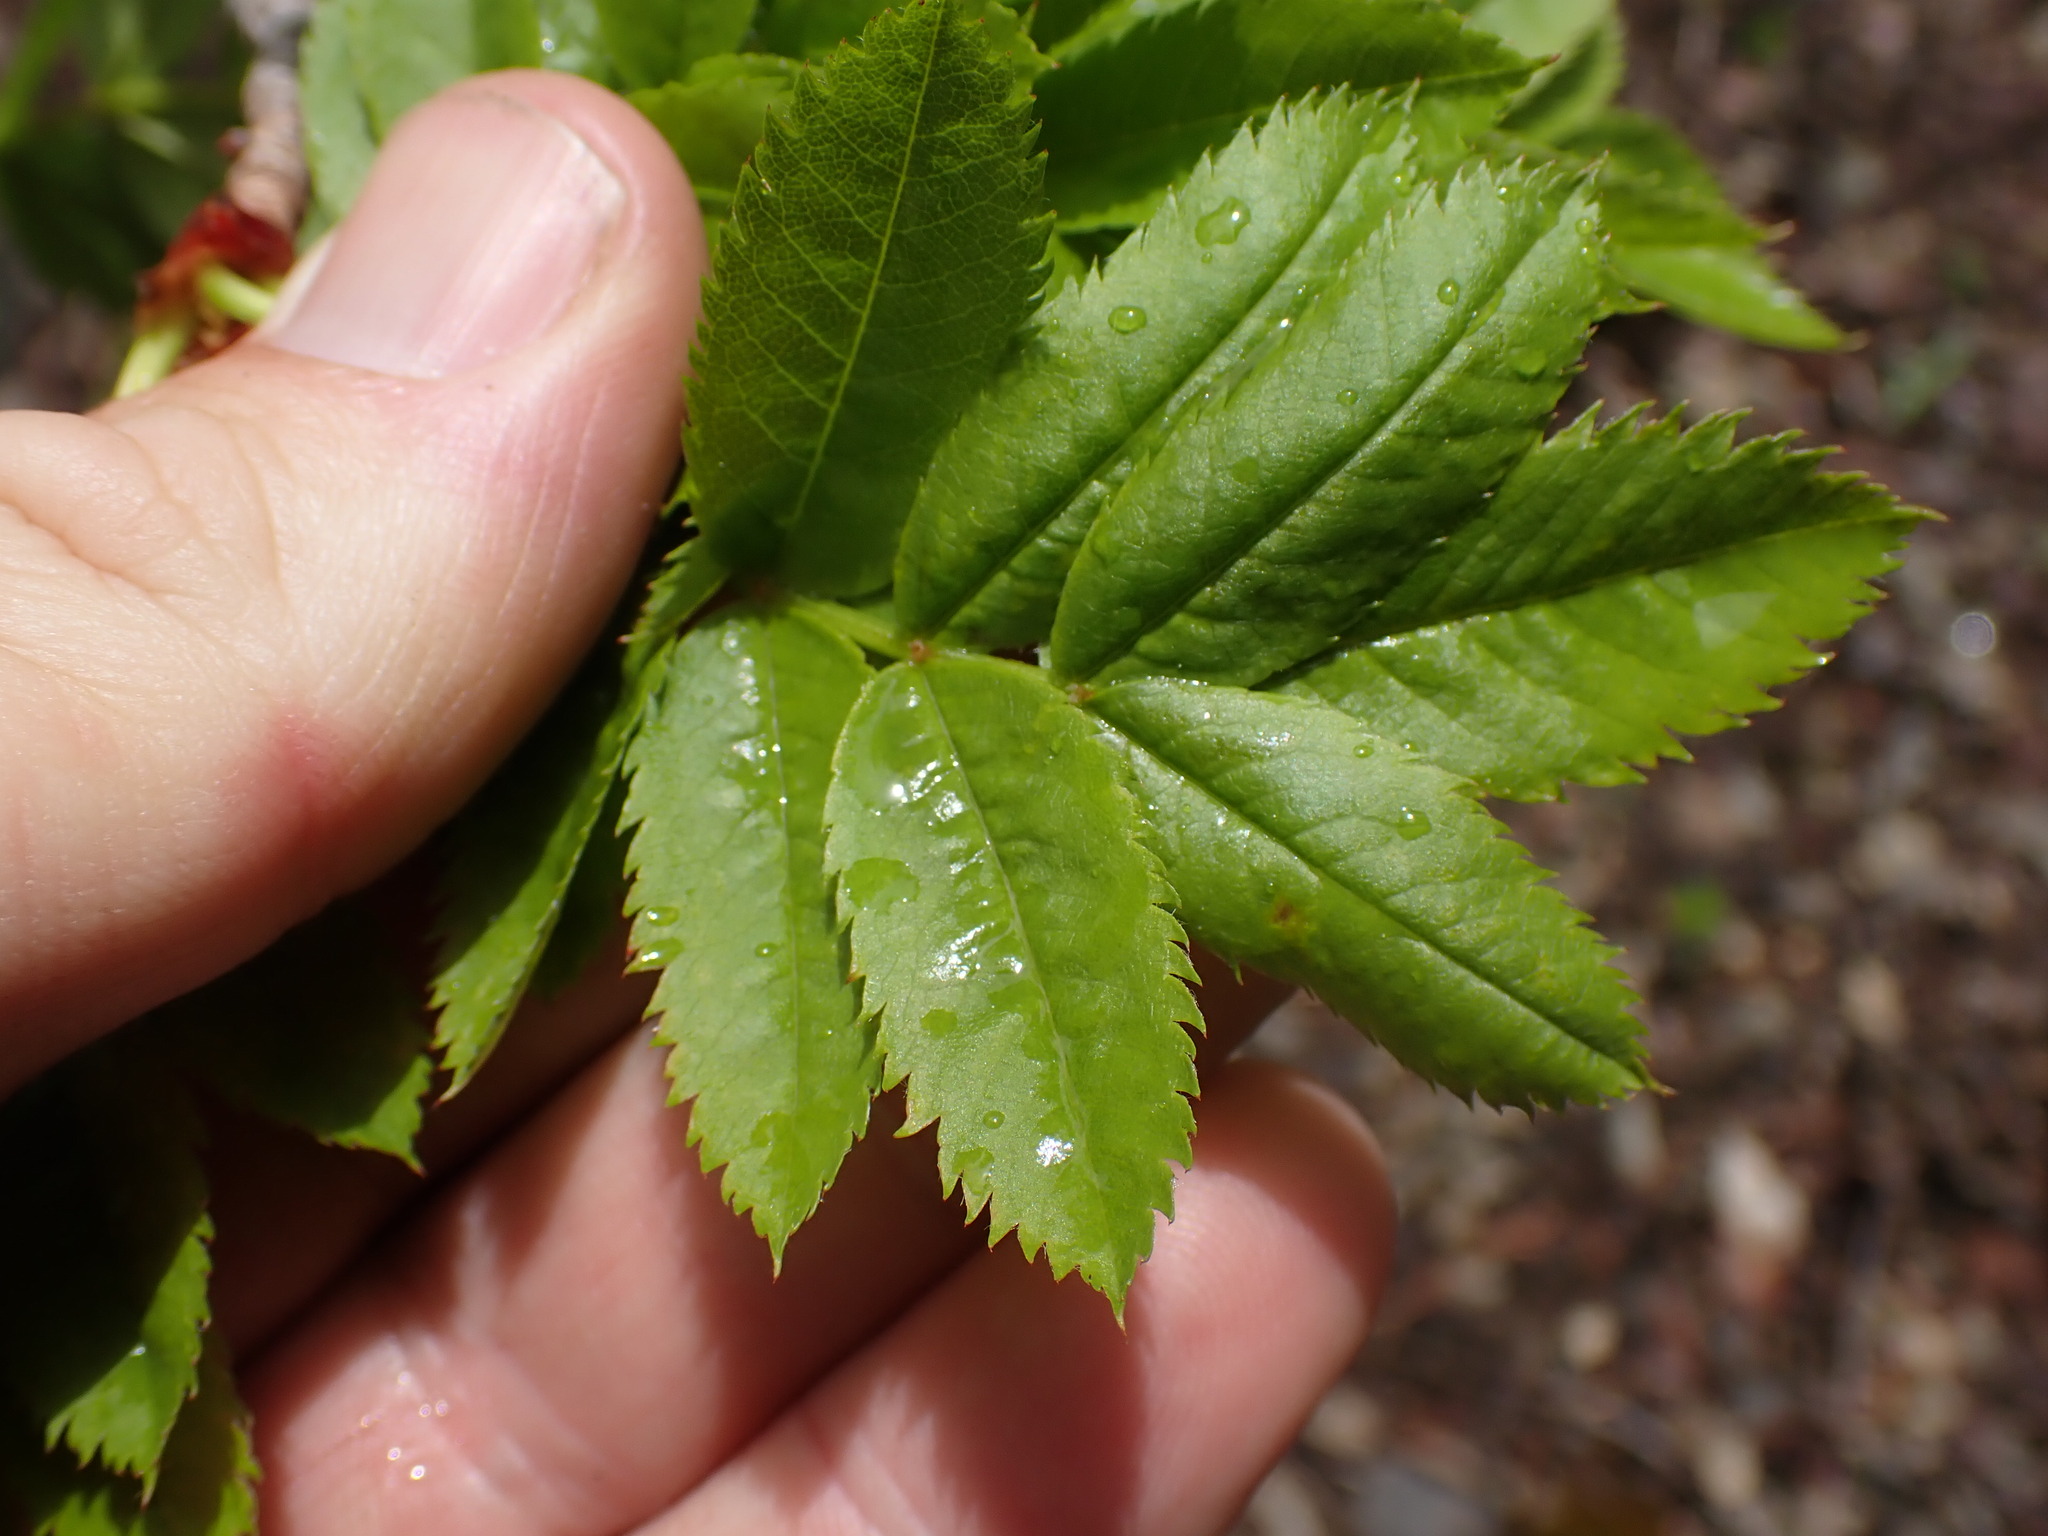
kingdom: Plantae
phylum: Tracheophyta
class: Magnoliopsida
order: Rosales
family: Rosaceae
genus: Sorbus
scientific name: Sorbus scopulina
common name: Greene's mountain-ash
